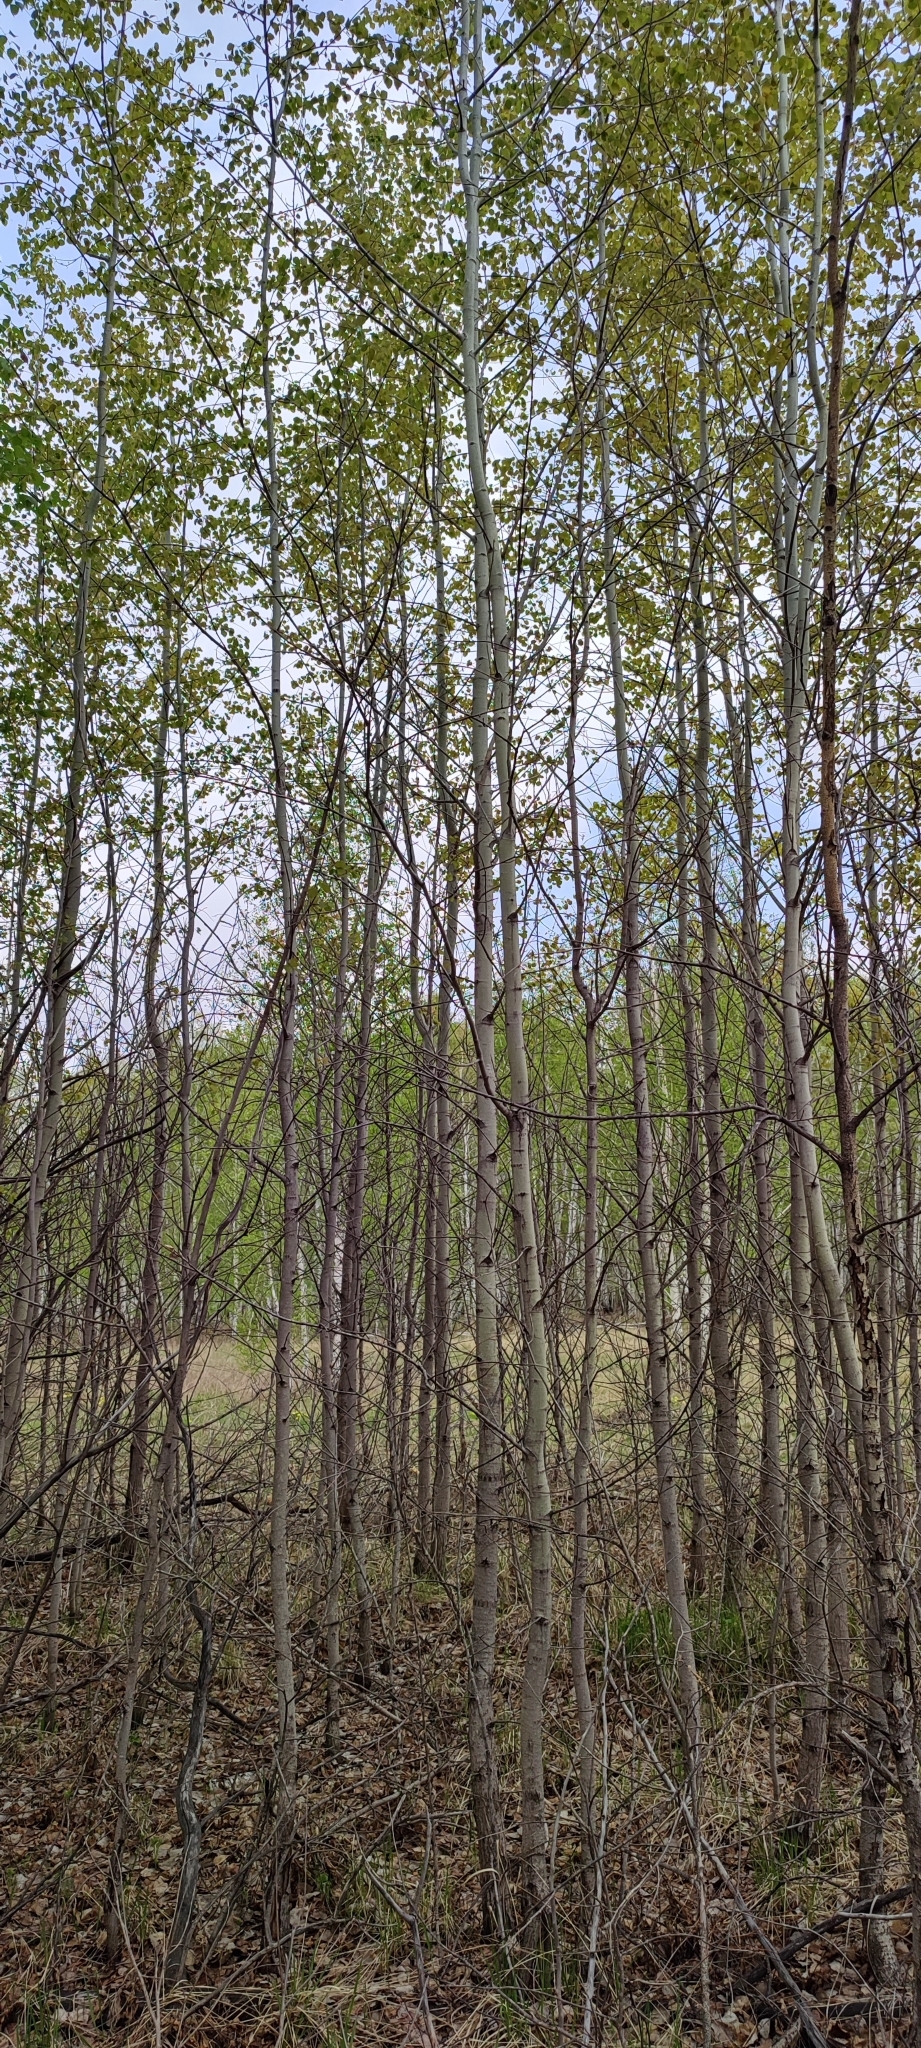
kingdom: Plantae
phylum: Tracheophyta
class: Magnoliopsida
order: Malpighiales
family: Salicaceae
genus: Populus
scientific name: Populus tremula
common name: European aspen
